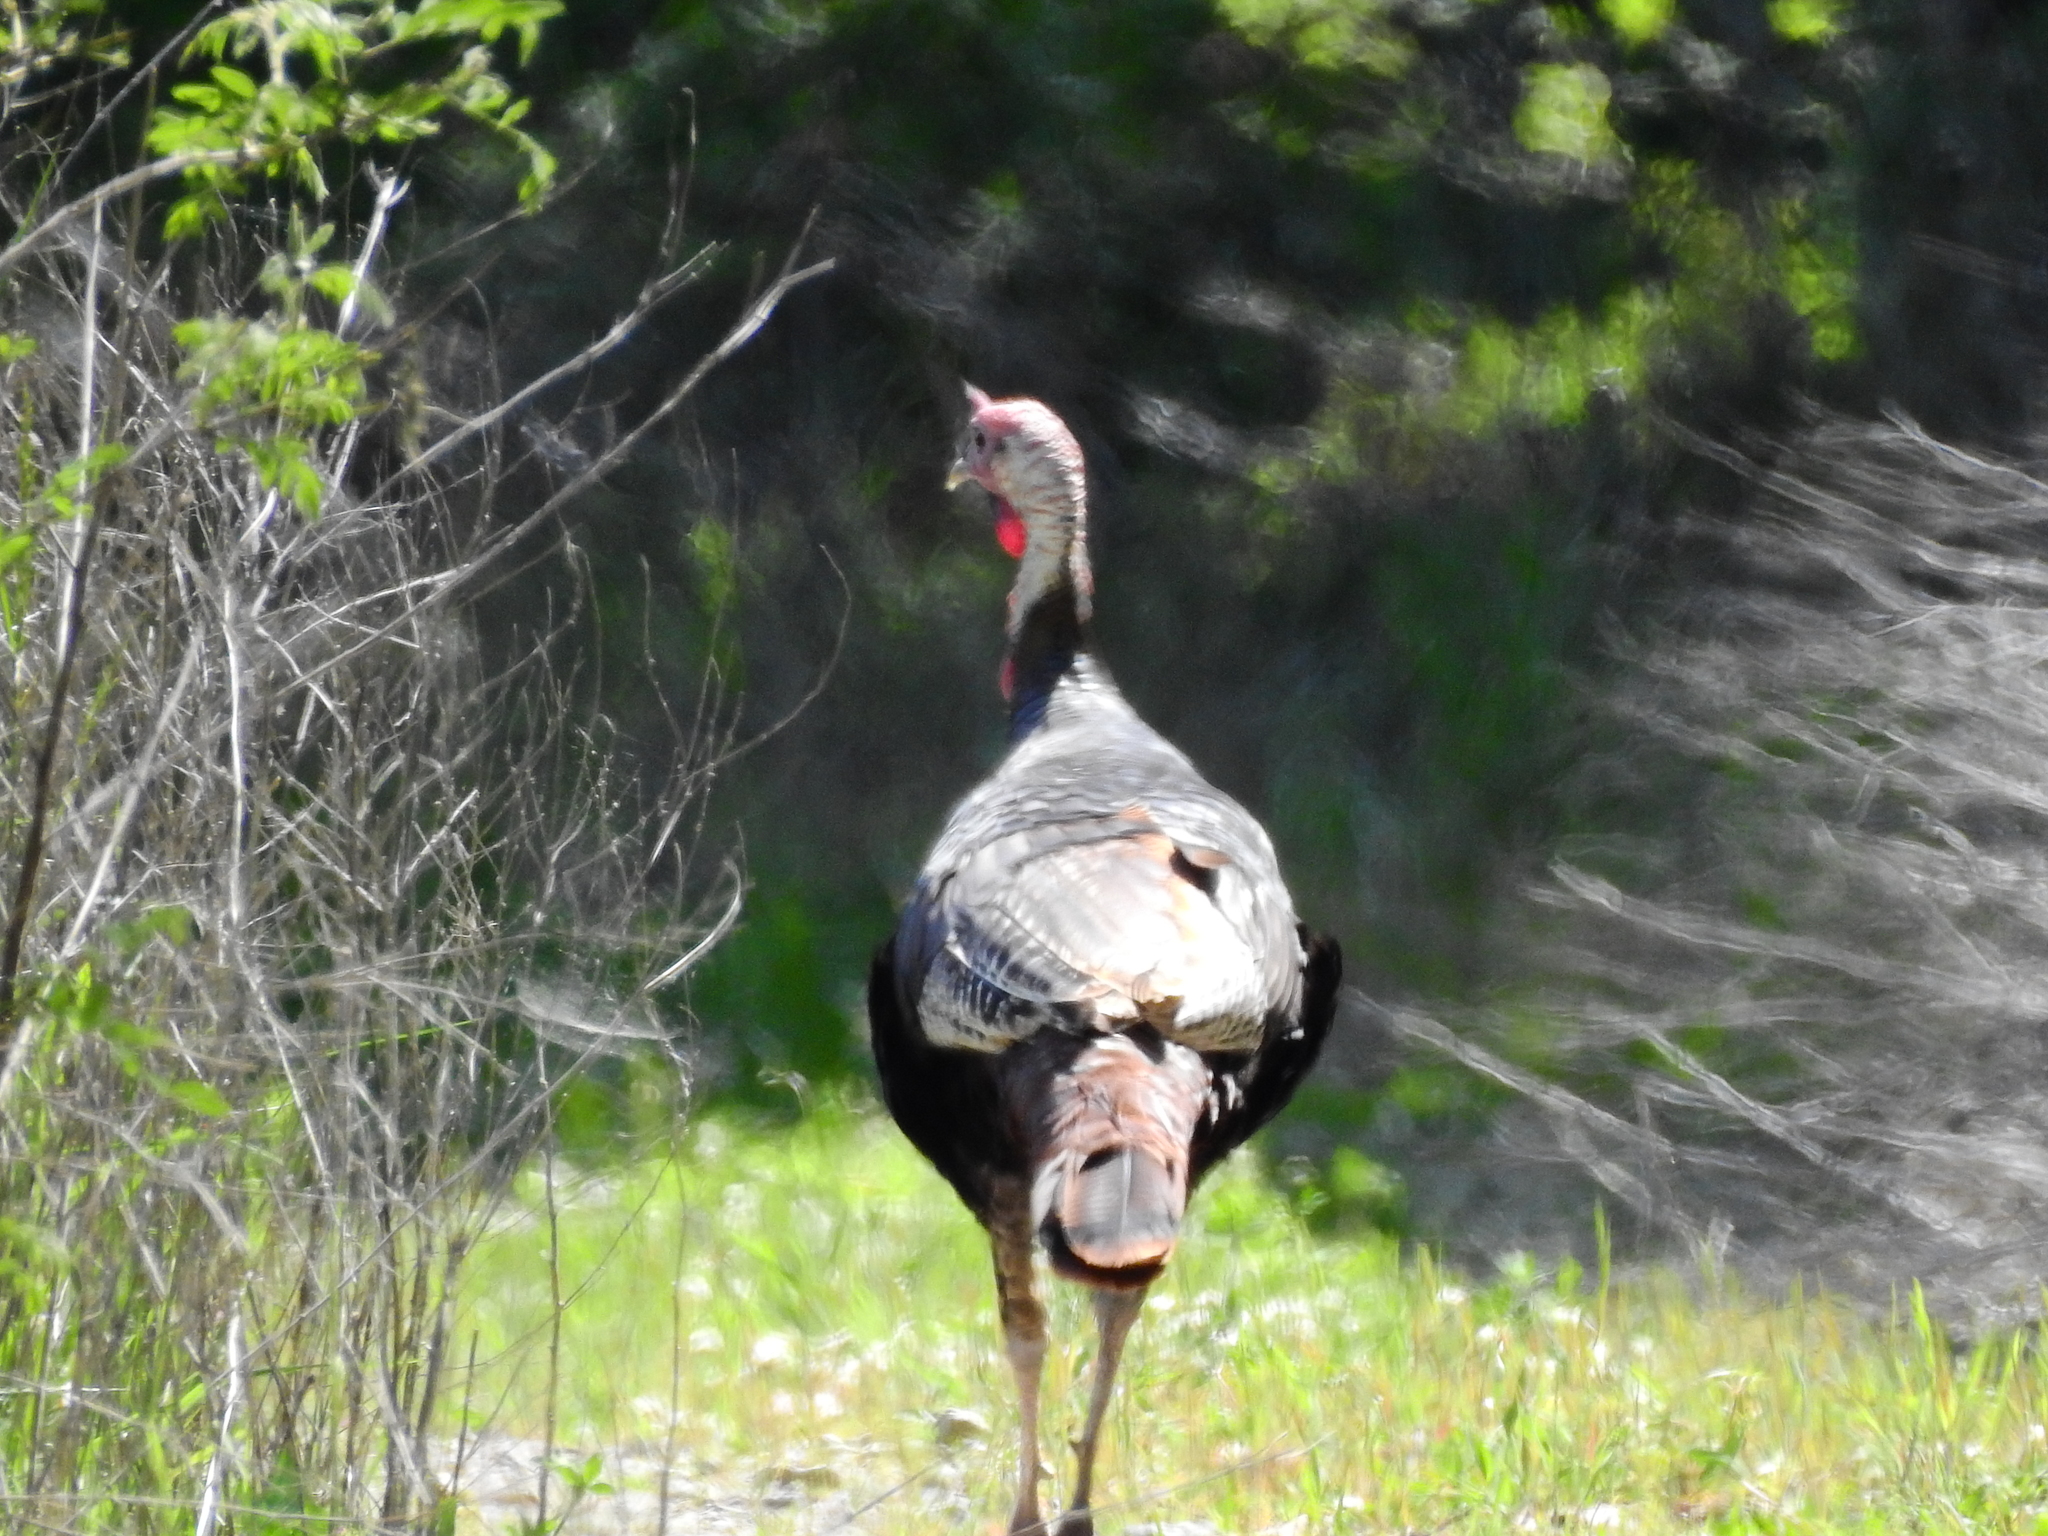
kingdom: Animalia
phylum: Chordata
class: Aves
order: Galliformes
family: Phasianidae
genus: Meleagris
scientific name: Meleagris gallopavo
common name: Wild turkey
